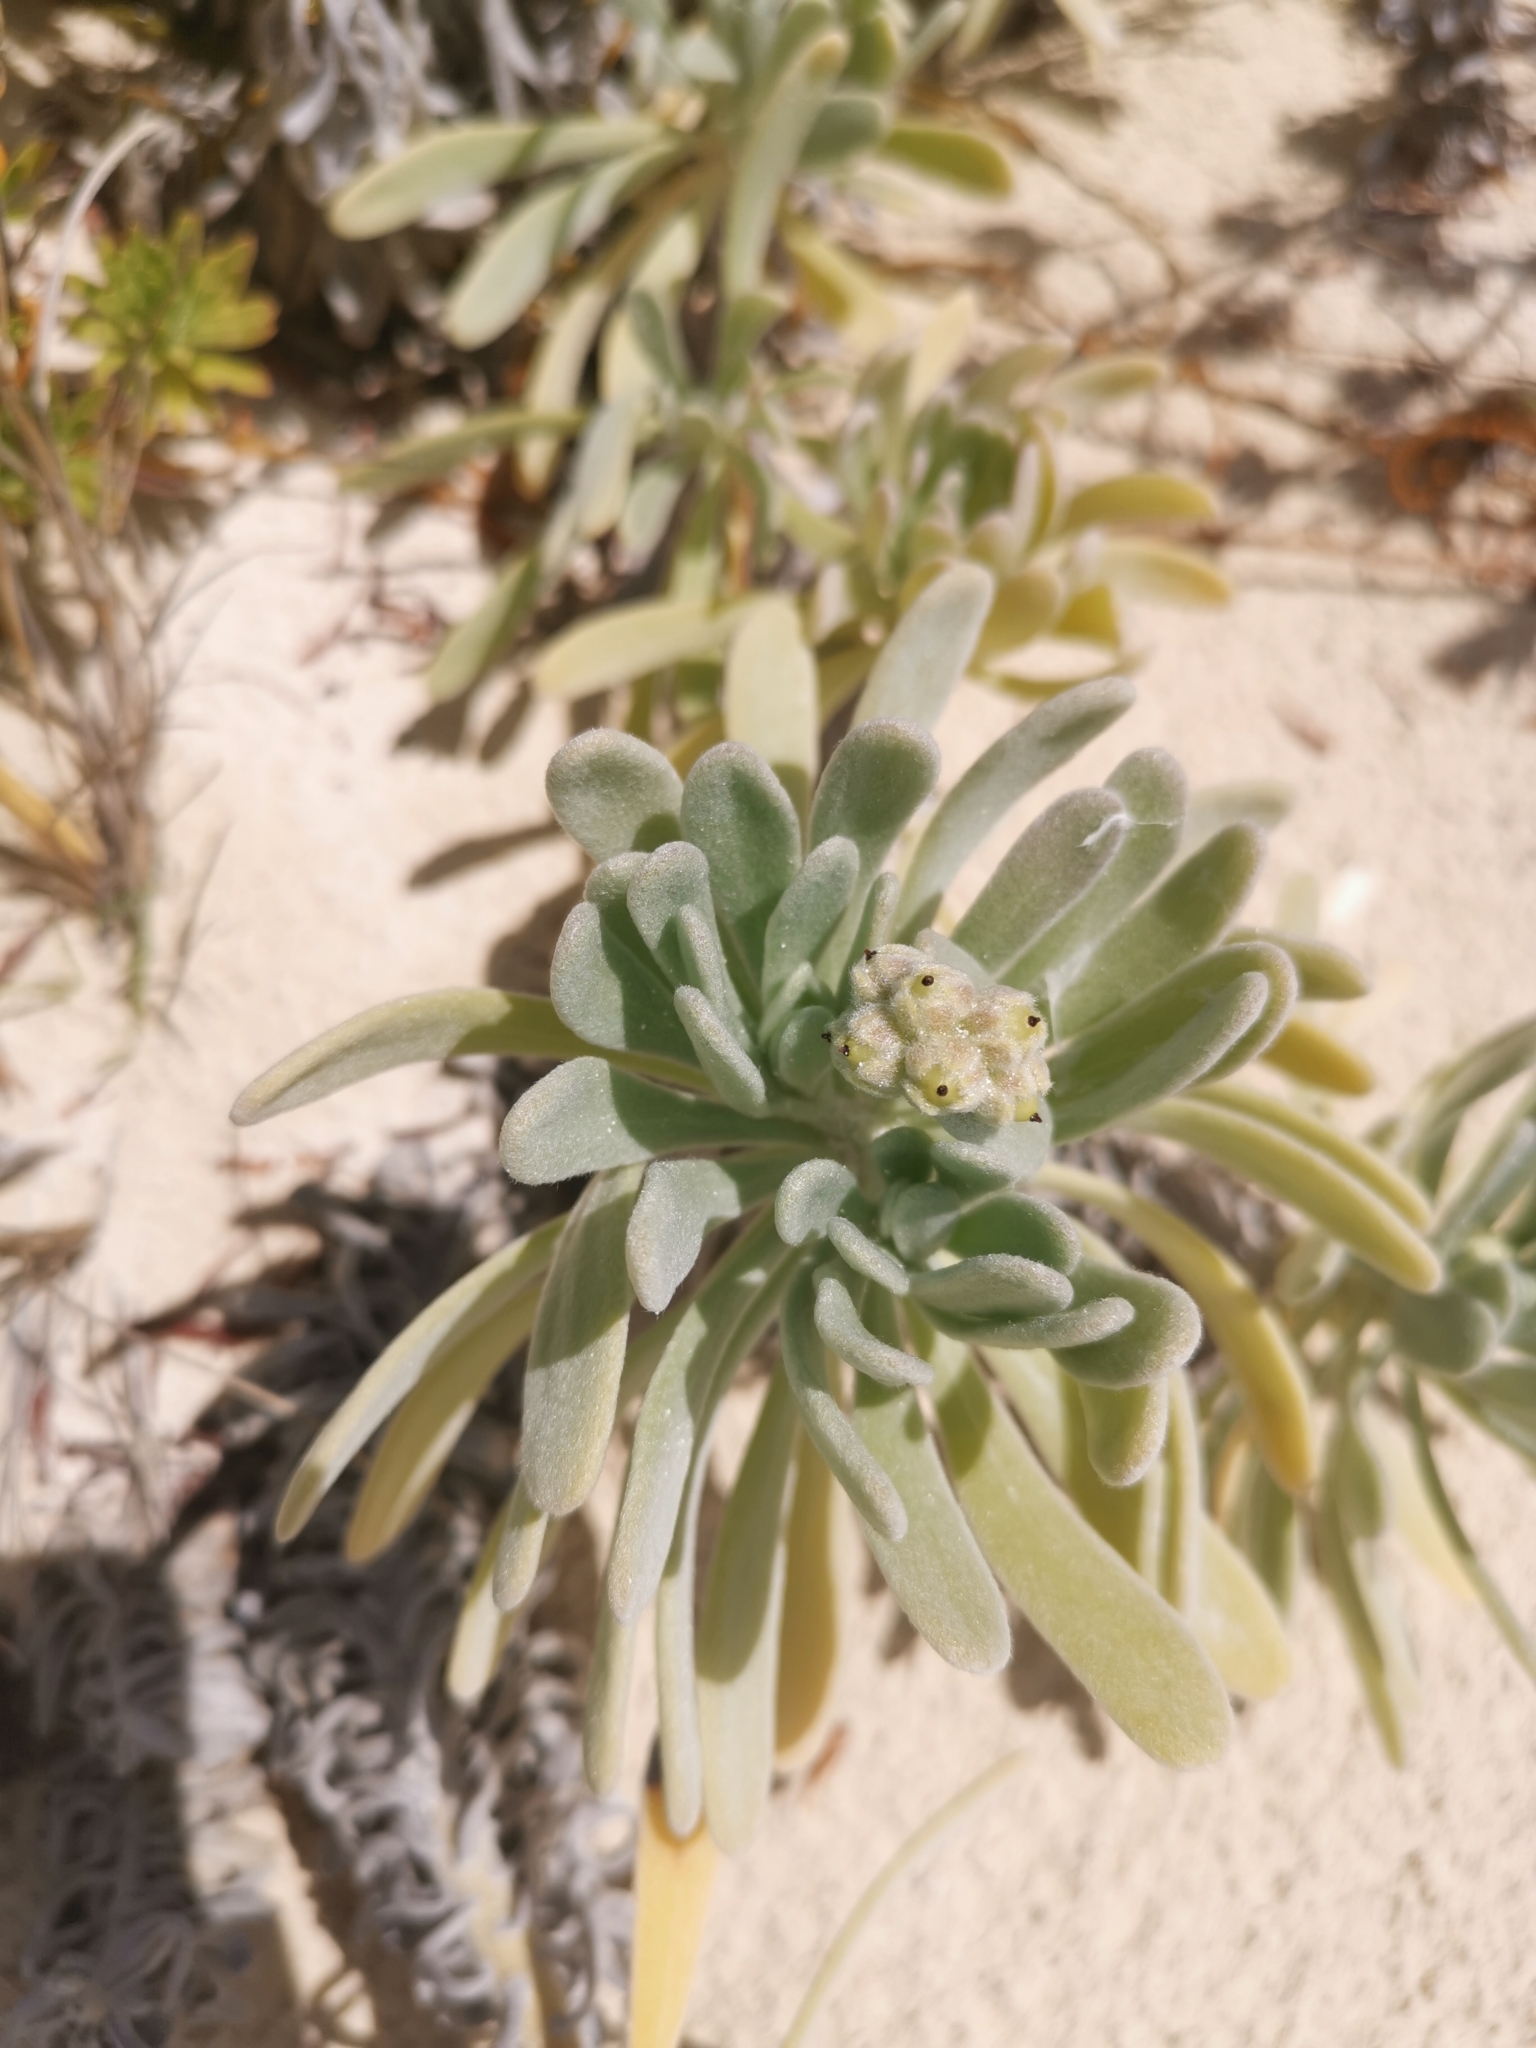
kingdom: Plantae
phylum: Tracheophyta
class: Magnoliopsida
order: Boraginales
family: Heliotropiaceae
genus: Tournefortia
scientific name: Tournefortia gnaphalodes
